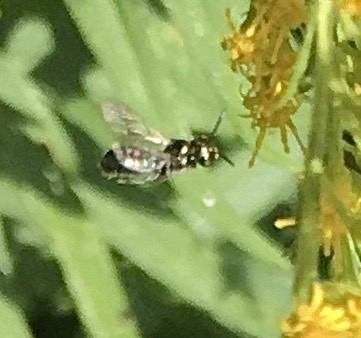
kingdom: Animalia
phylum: Arthropoda
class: Insecta
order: Hymenoptera
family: Apidae
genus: Zadontomerus
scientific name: Zadontomerus
